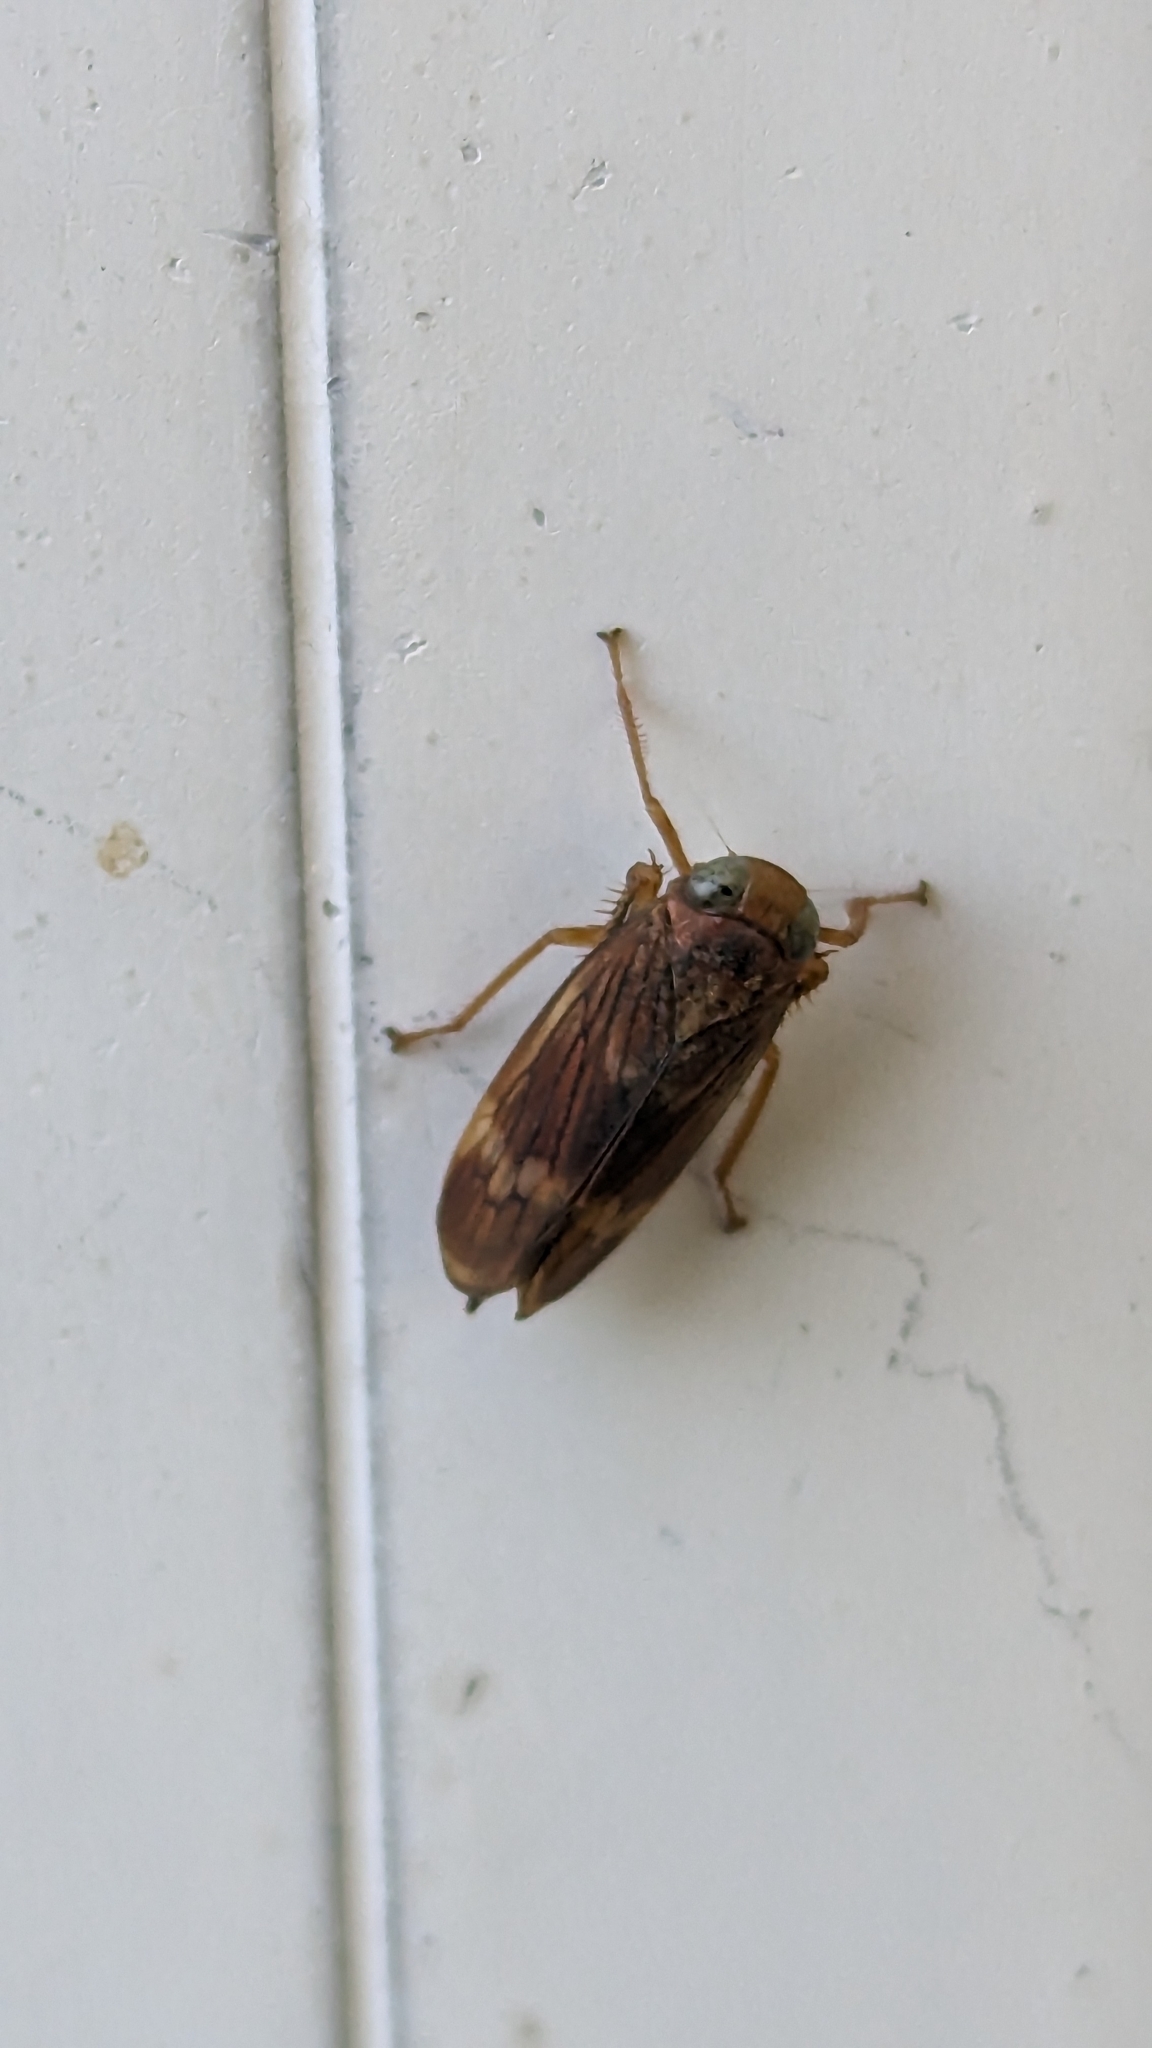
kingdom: Animalia
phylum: Arthropoda
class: Insecta
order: Hemiptera
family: Cicadellidae
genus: Jikradia
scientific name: Jikradia olitoria
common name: Coppery leafhopper
